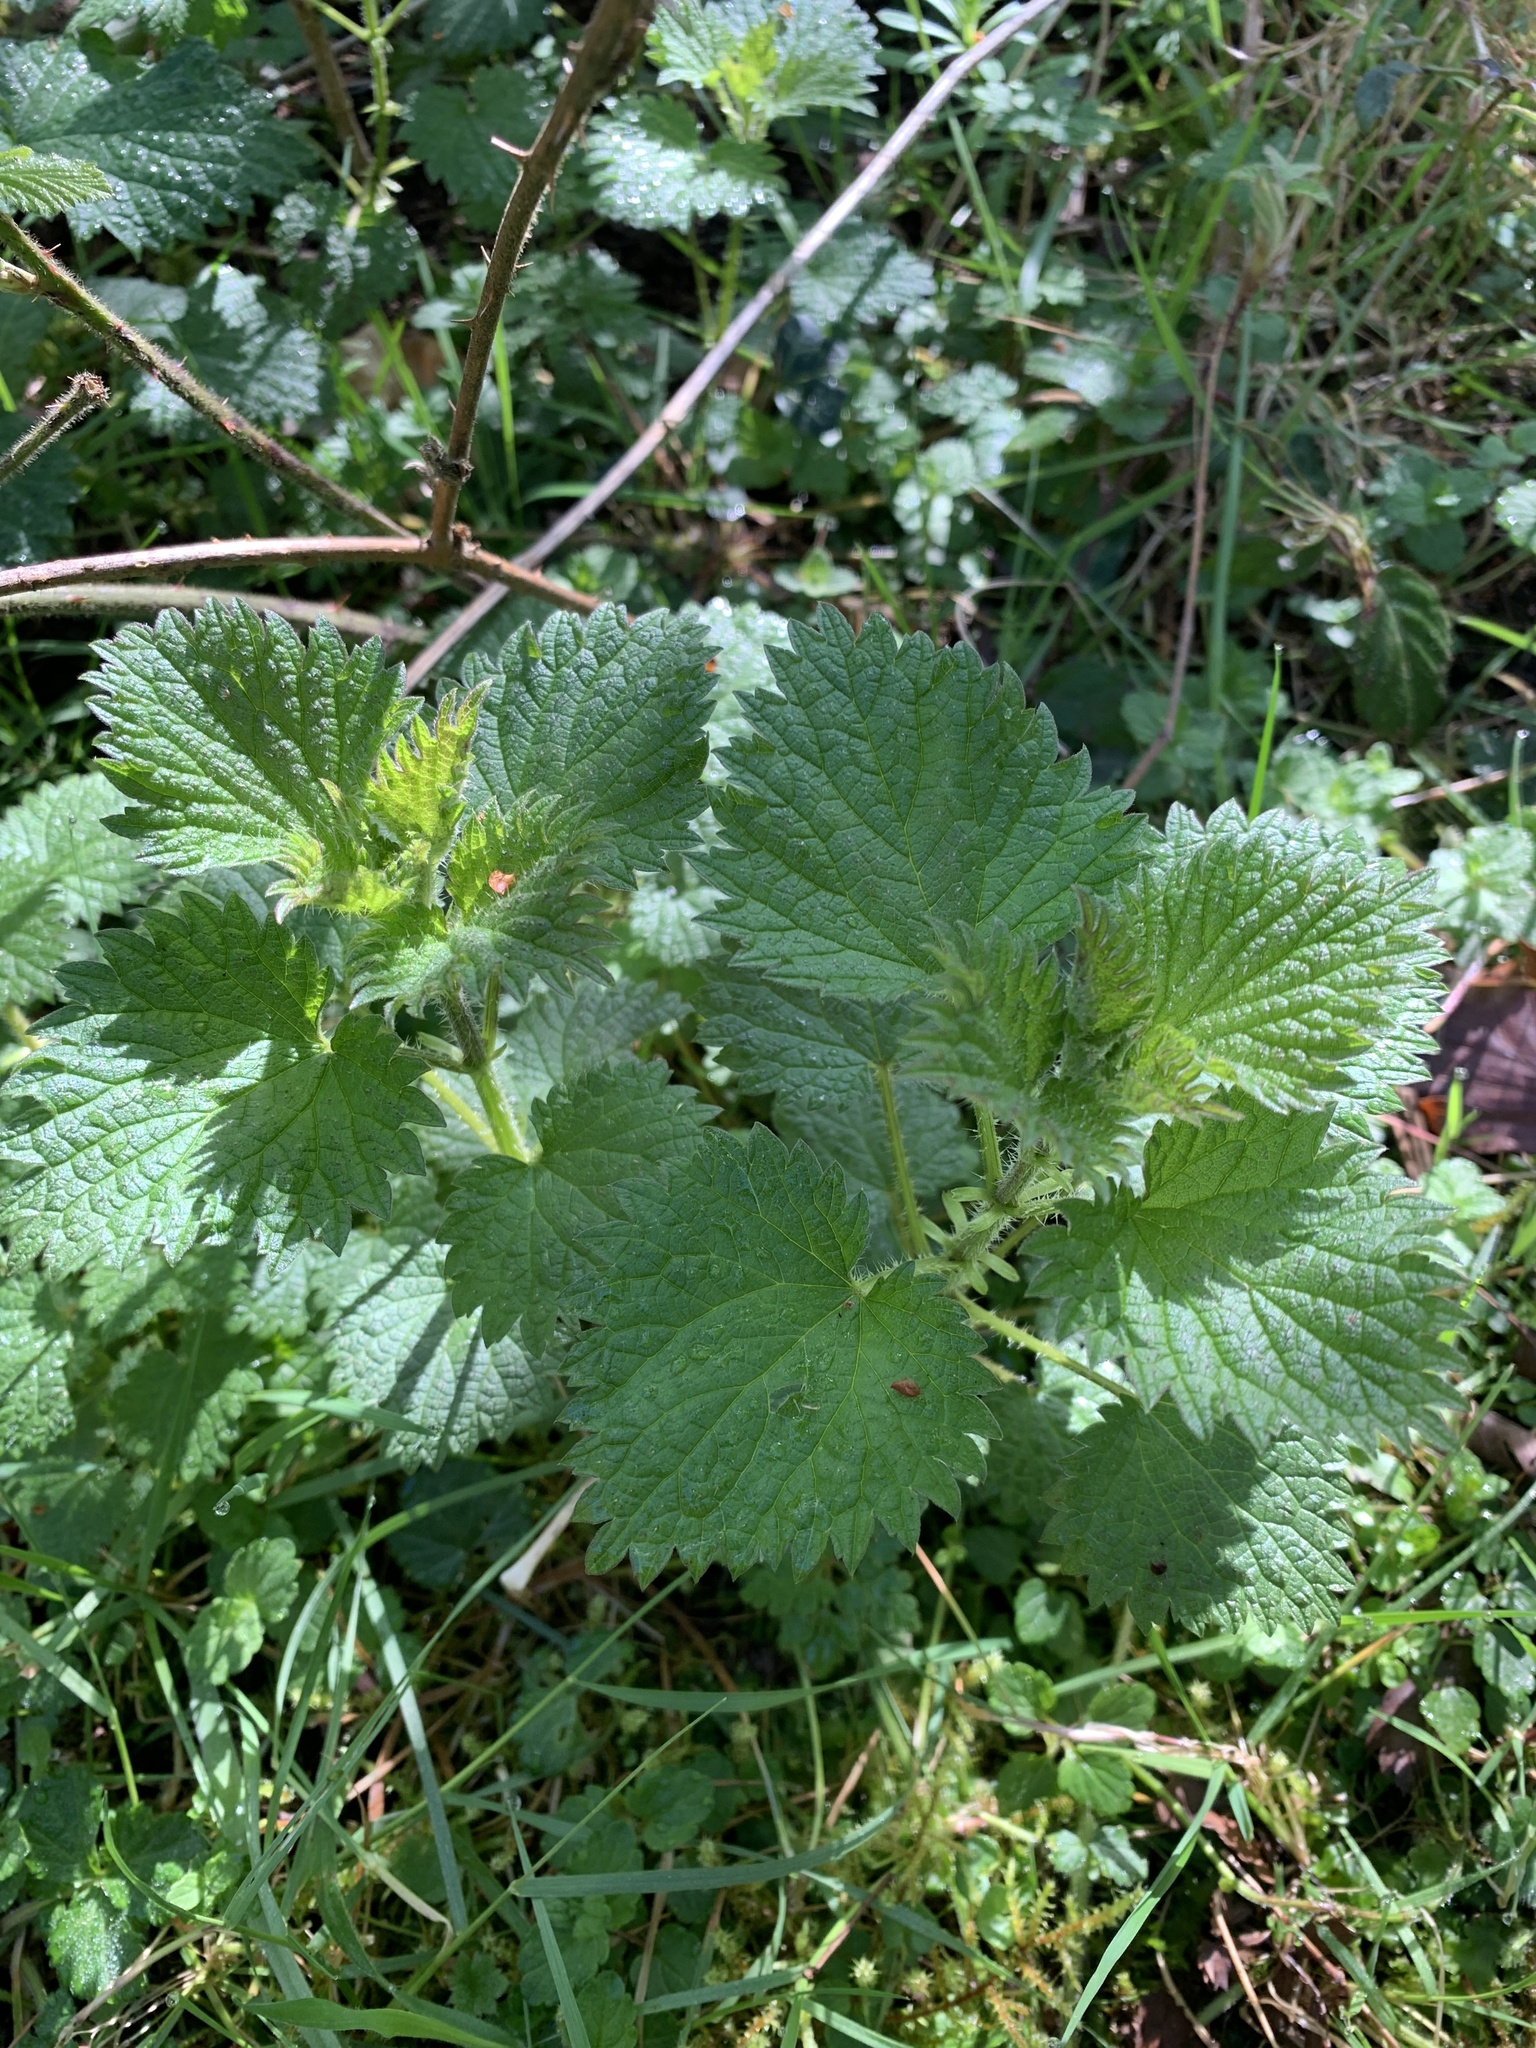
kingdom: Plantae
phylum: Tracheophyta
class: Magnoliopsida
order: Rosales
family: Urticaceae
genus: Urtica
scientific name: Urtica dioica
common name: Common nettle
